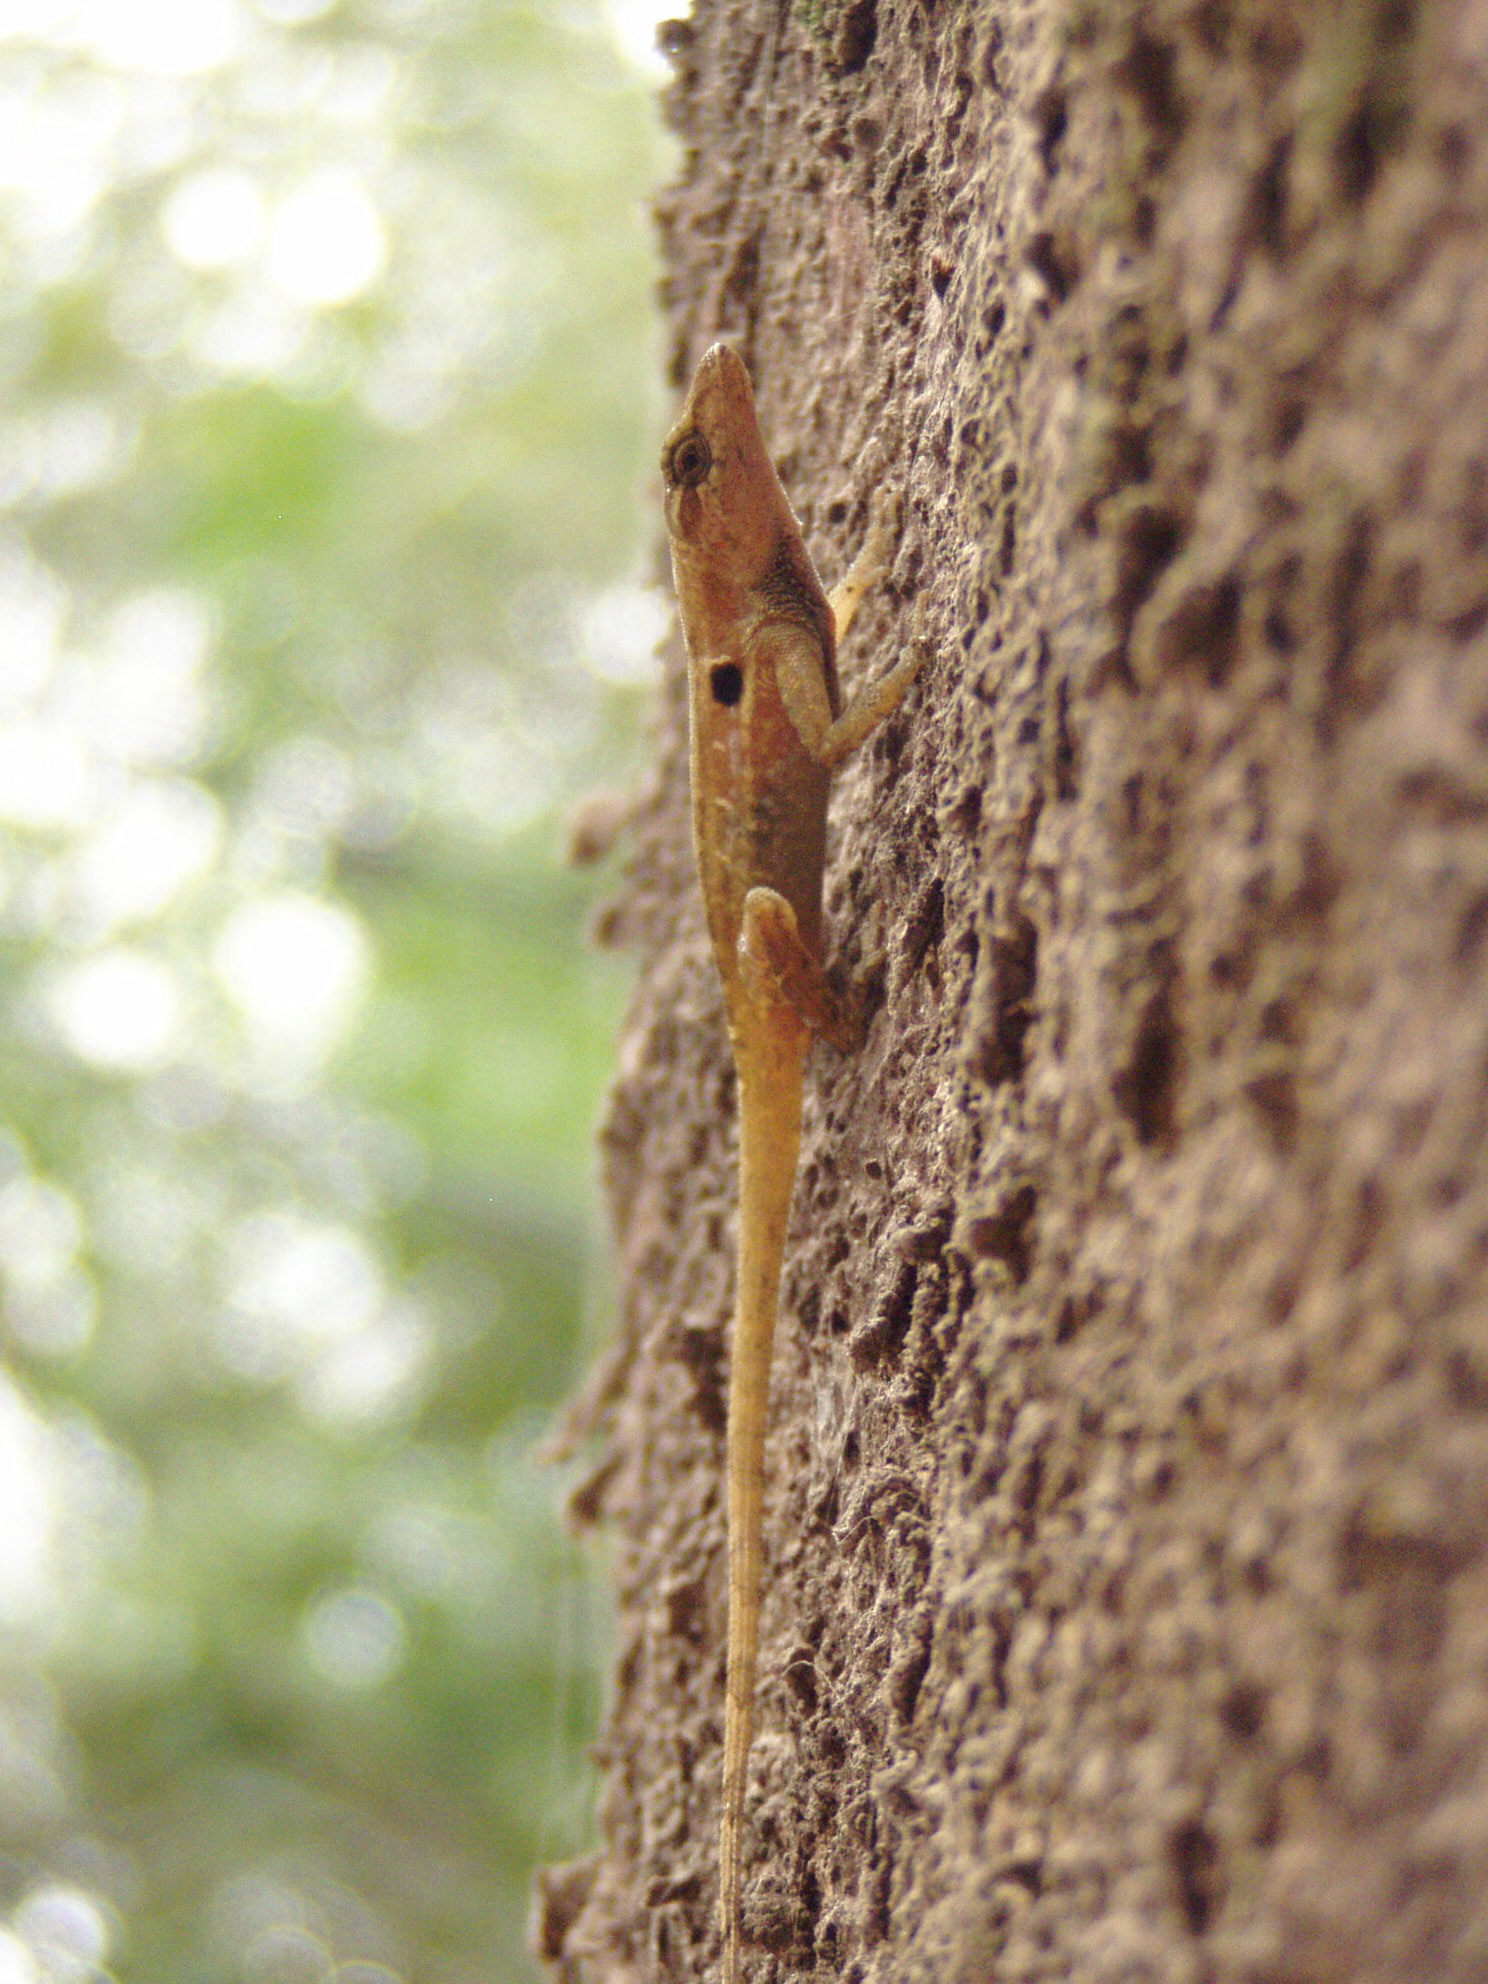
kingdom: Animalia
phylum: Chordata
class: Squamata
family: Dactyloidae
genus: Anolis
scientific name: Anolis cupreus
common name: Copper anole
